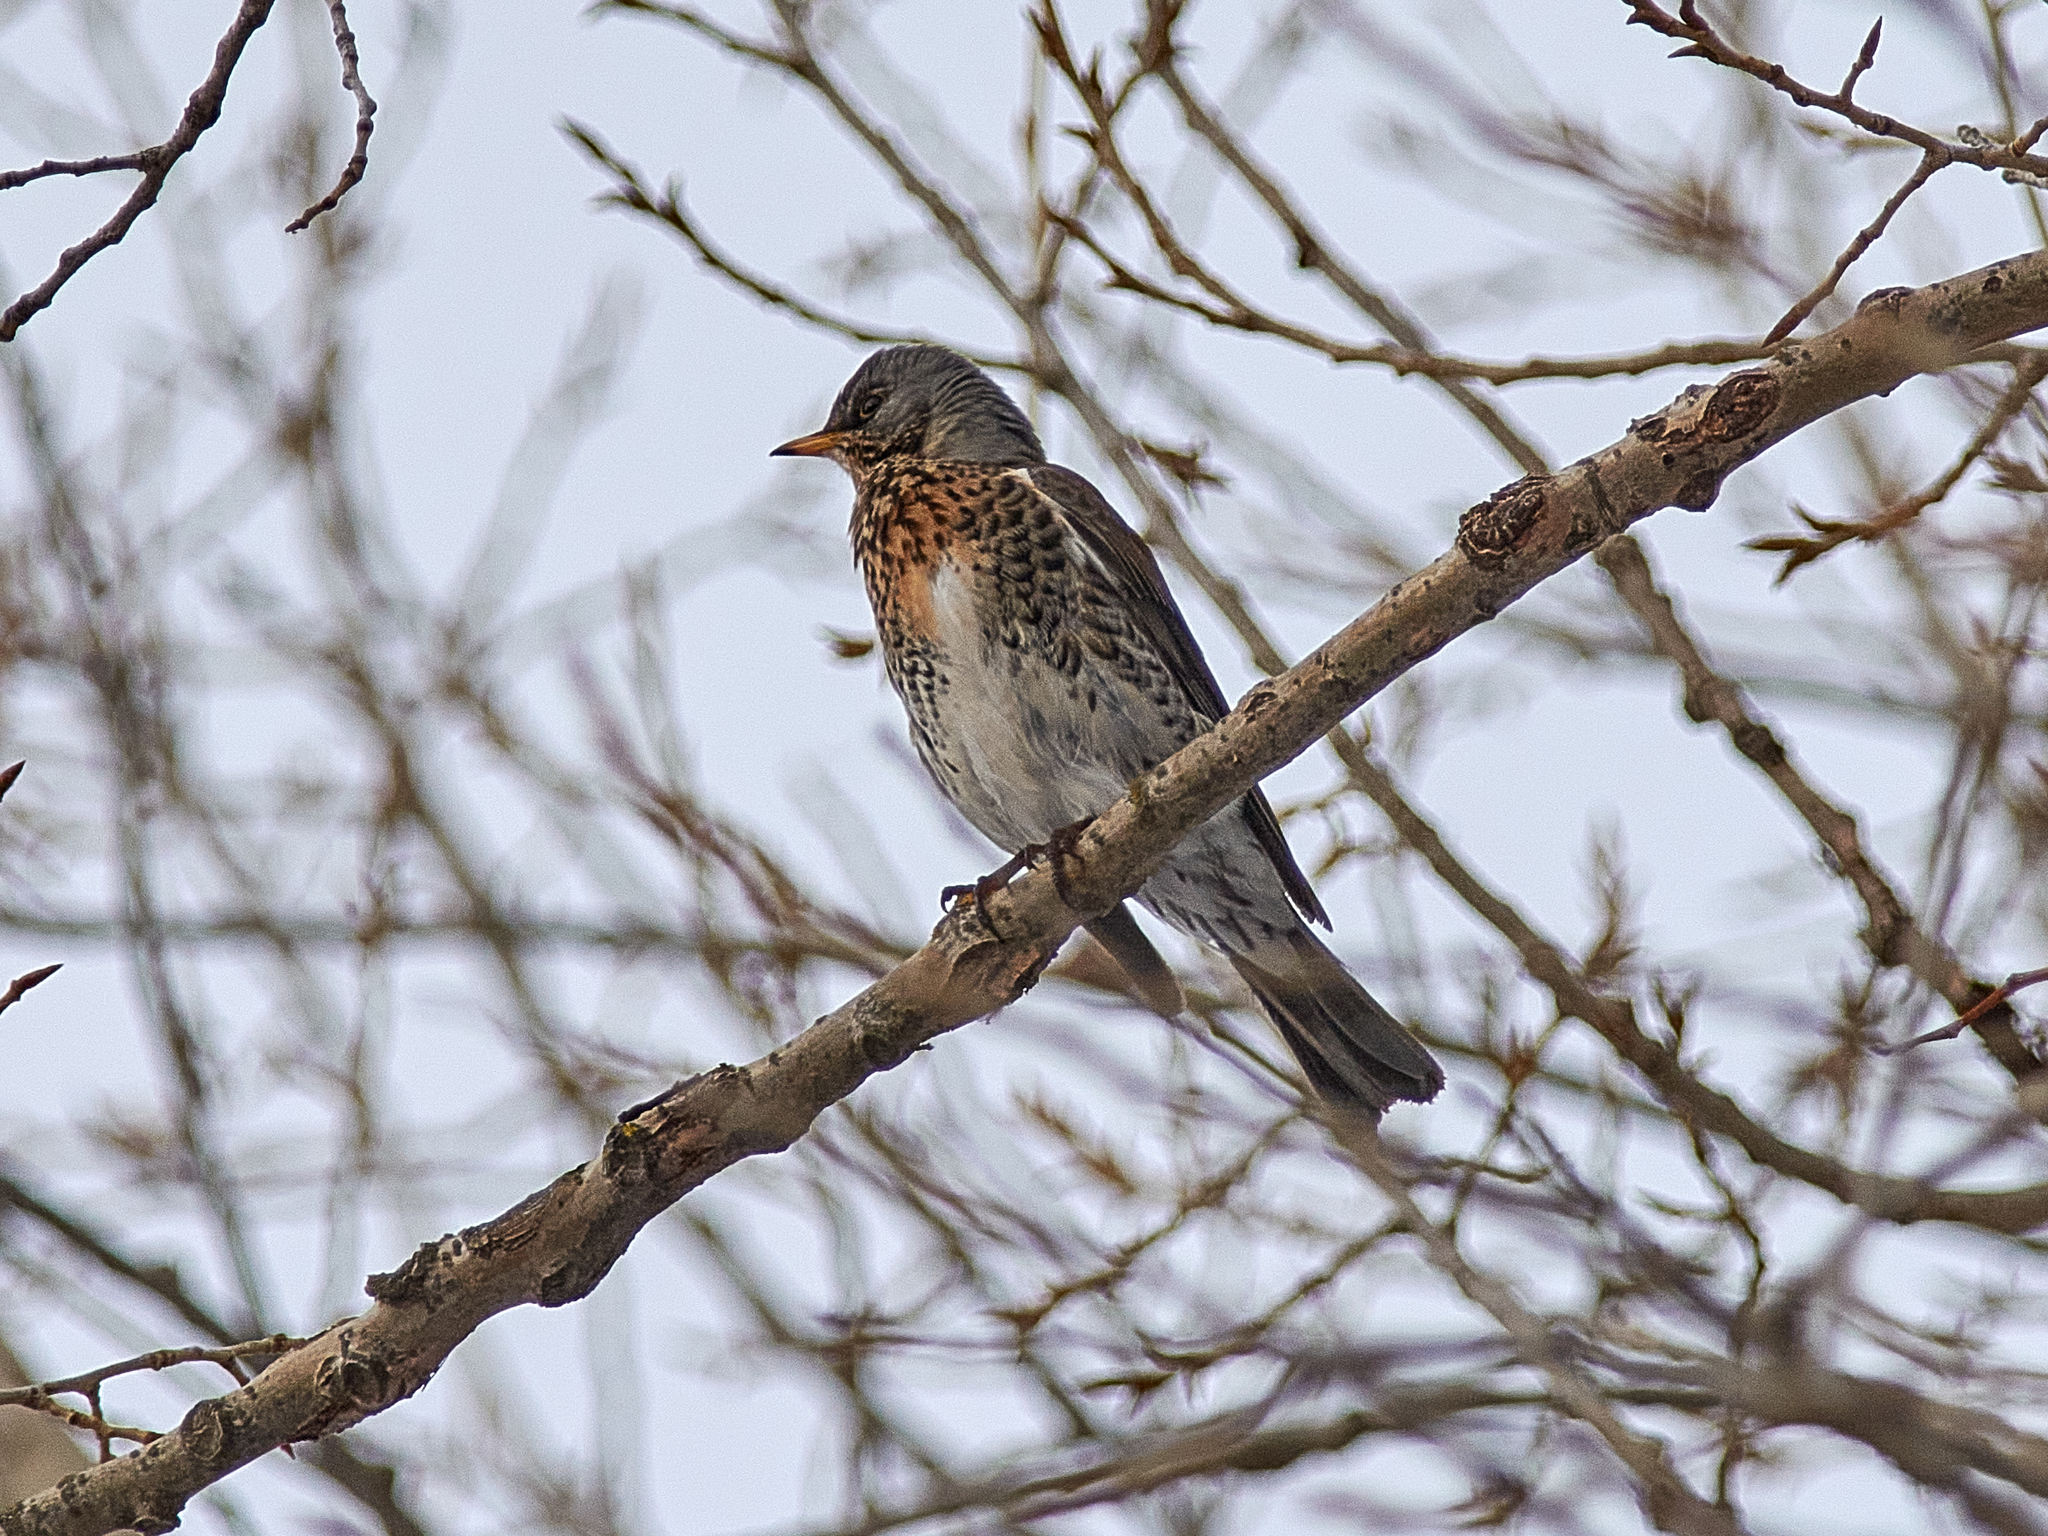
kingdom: Animalia
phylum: Chordata
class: Aves
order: Passeriformes
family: Turdidae
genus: Turdus
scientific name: Turdus pilaris
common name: Fieldfare
